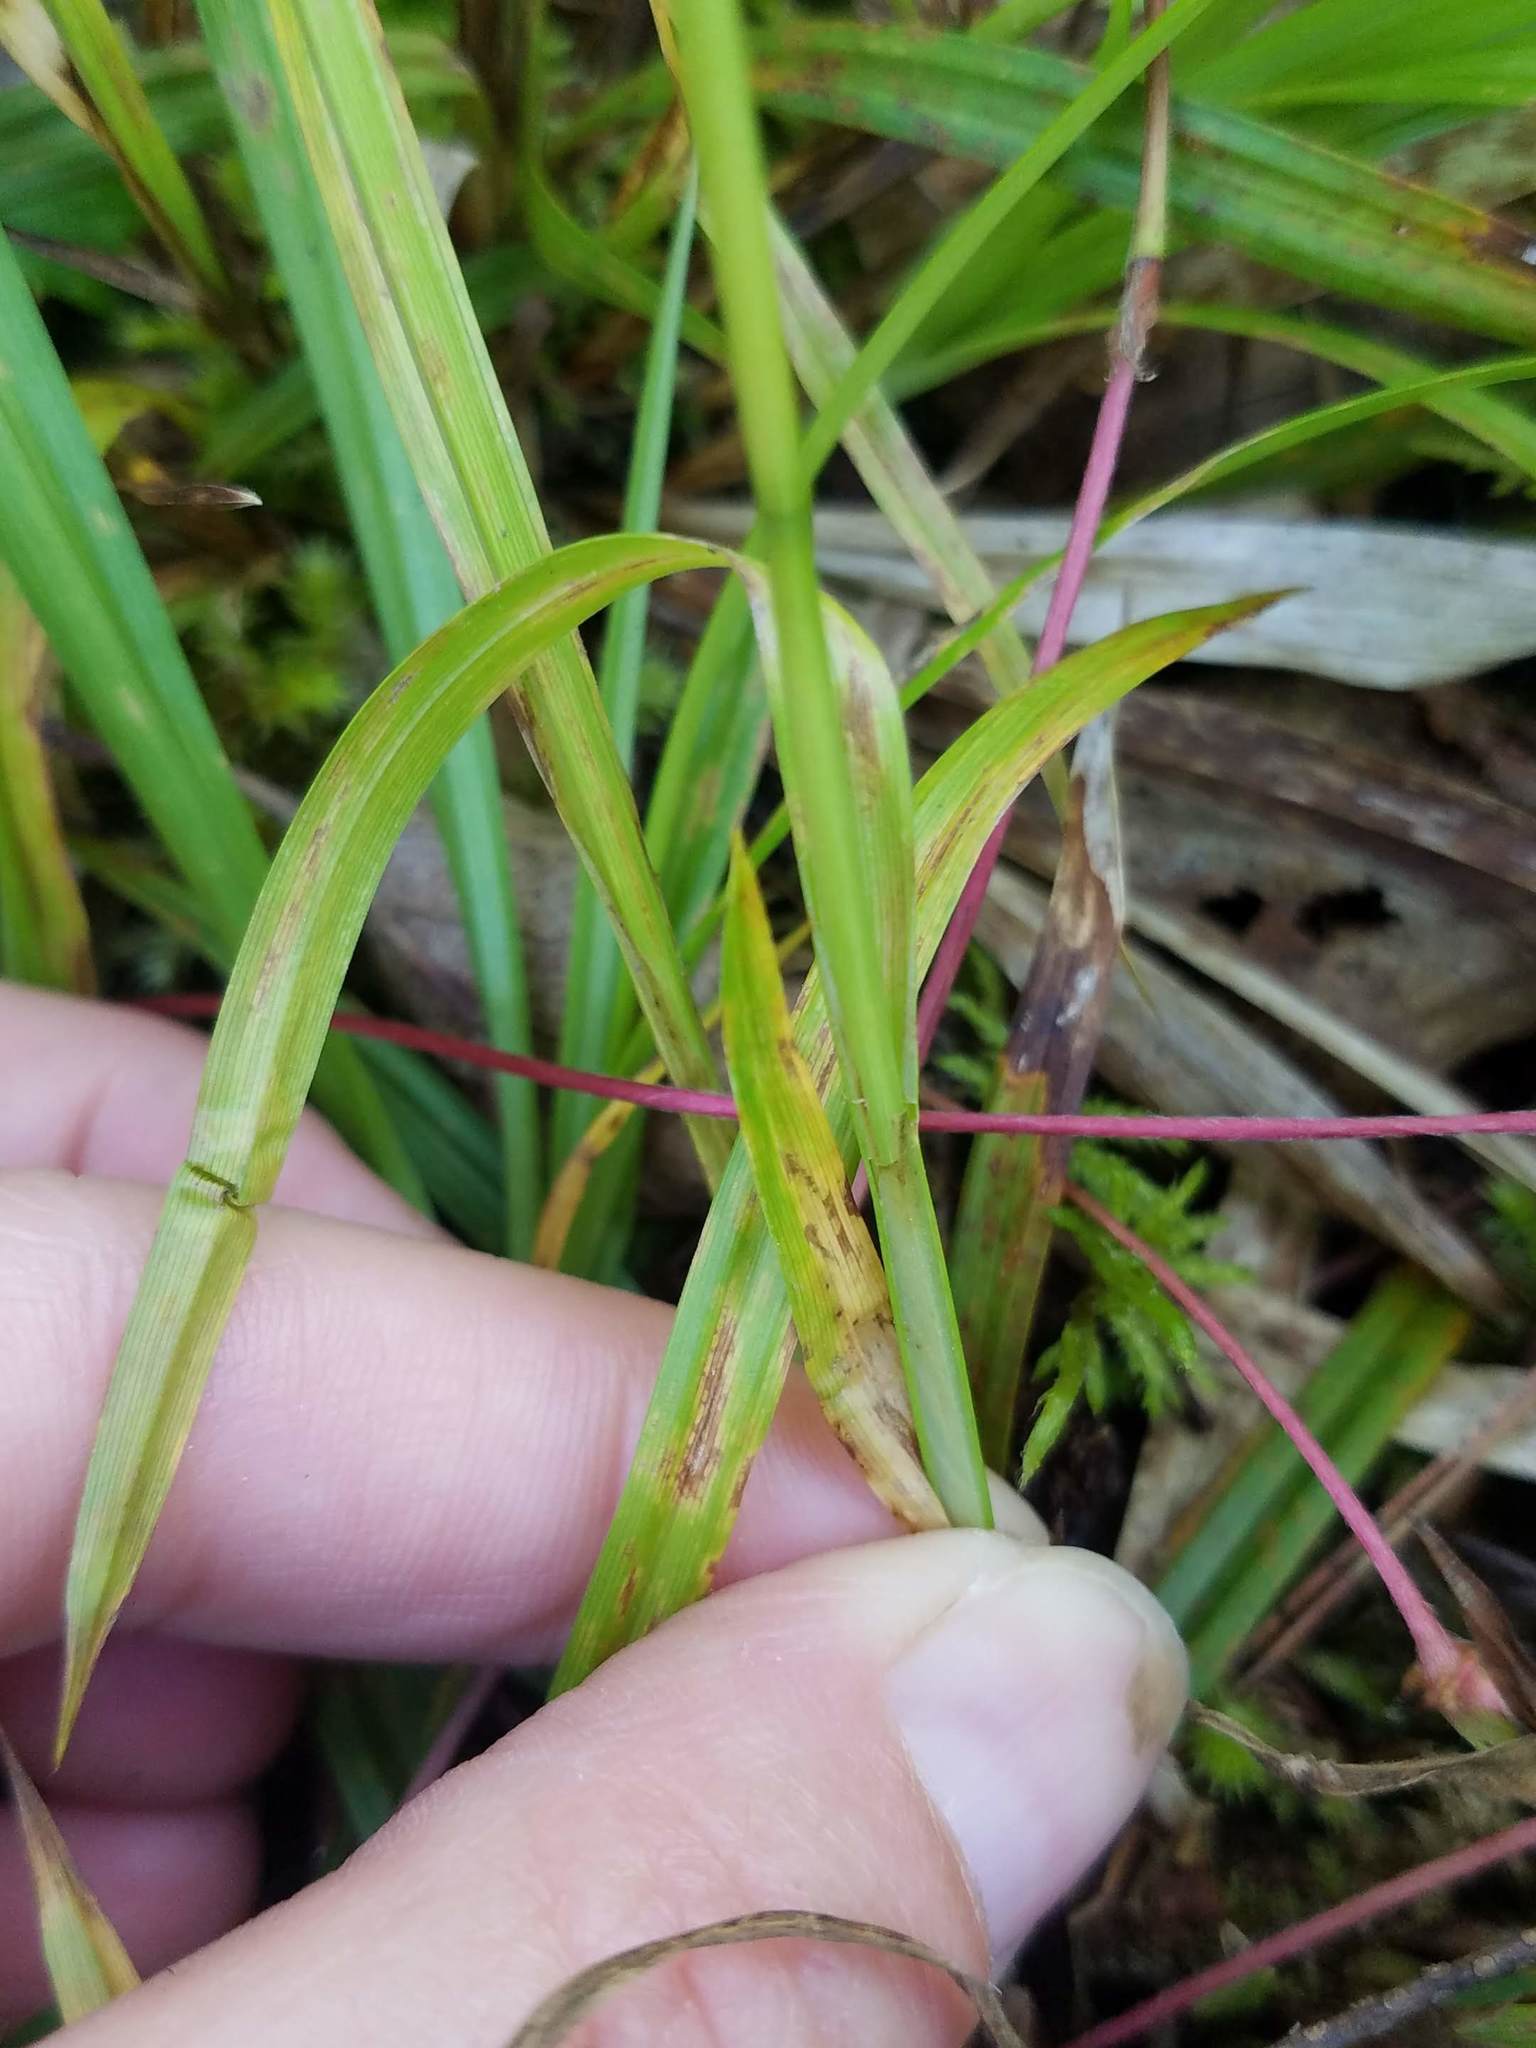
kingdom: Plantae
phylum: Tracheophyta
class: Liliopsida
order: Poales
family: Cyperaceae
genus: Carex
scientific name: Carex arctata
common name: Black sedge
